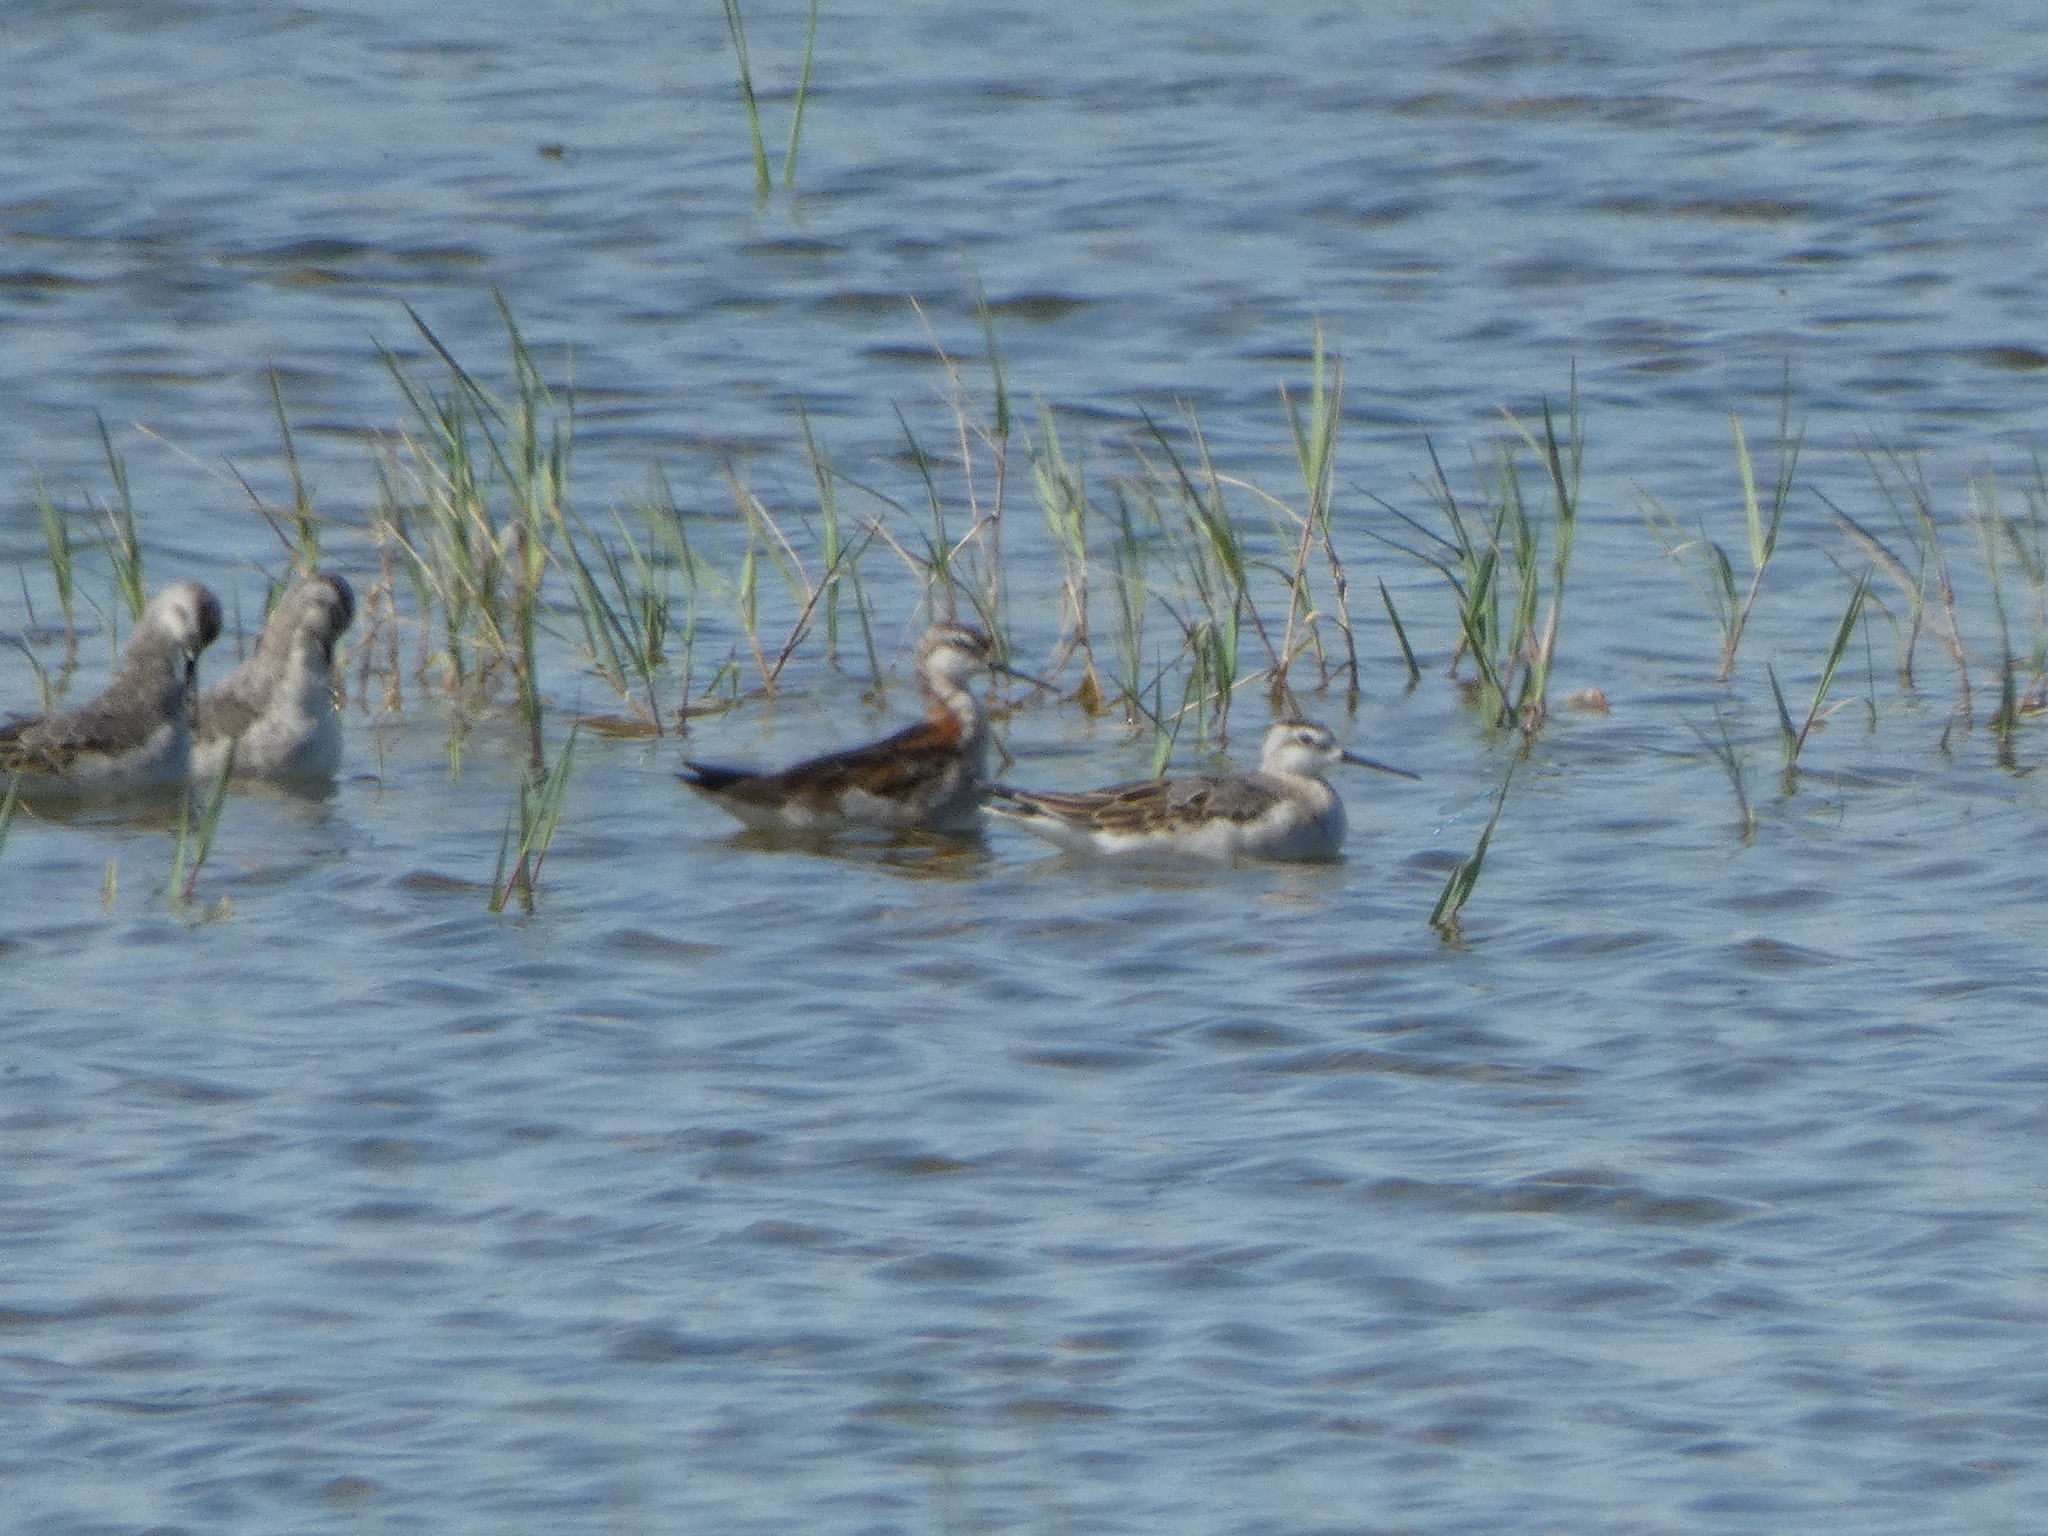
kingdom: Animalia
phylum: Chordata
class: Aves
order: Charadriiformes
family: Scolopacidae
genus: Phalaropus
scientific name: Phalaropus tricolor
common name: Wilson's phalarope
